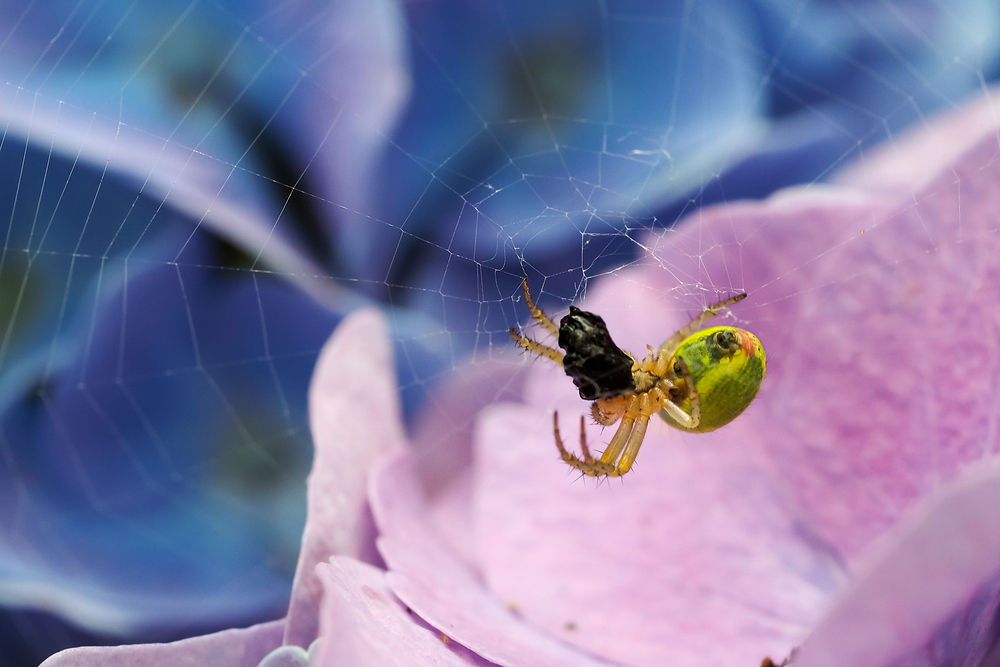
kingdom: Animalia
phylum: Arthropoda
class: Arachnida
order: Araneae
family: Araneidae
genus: Araniella
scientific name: Araniella
